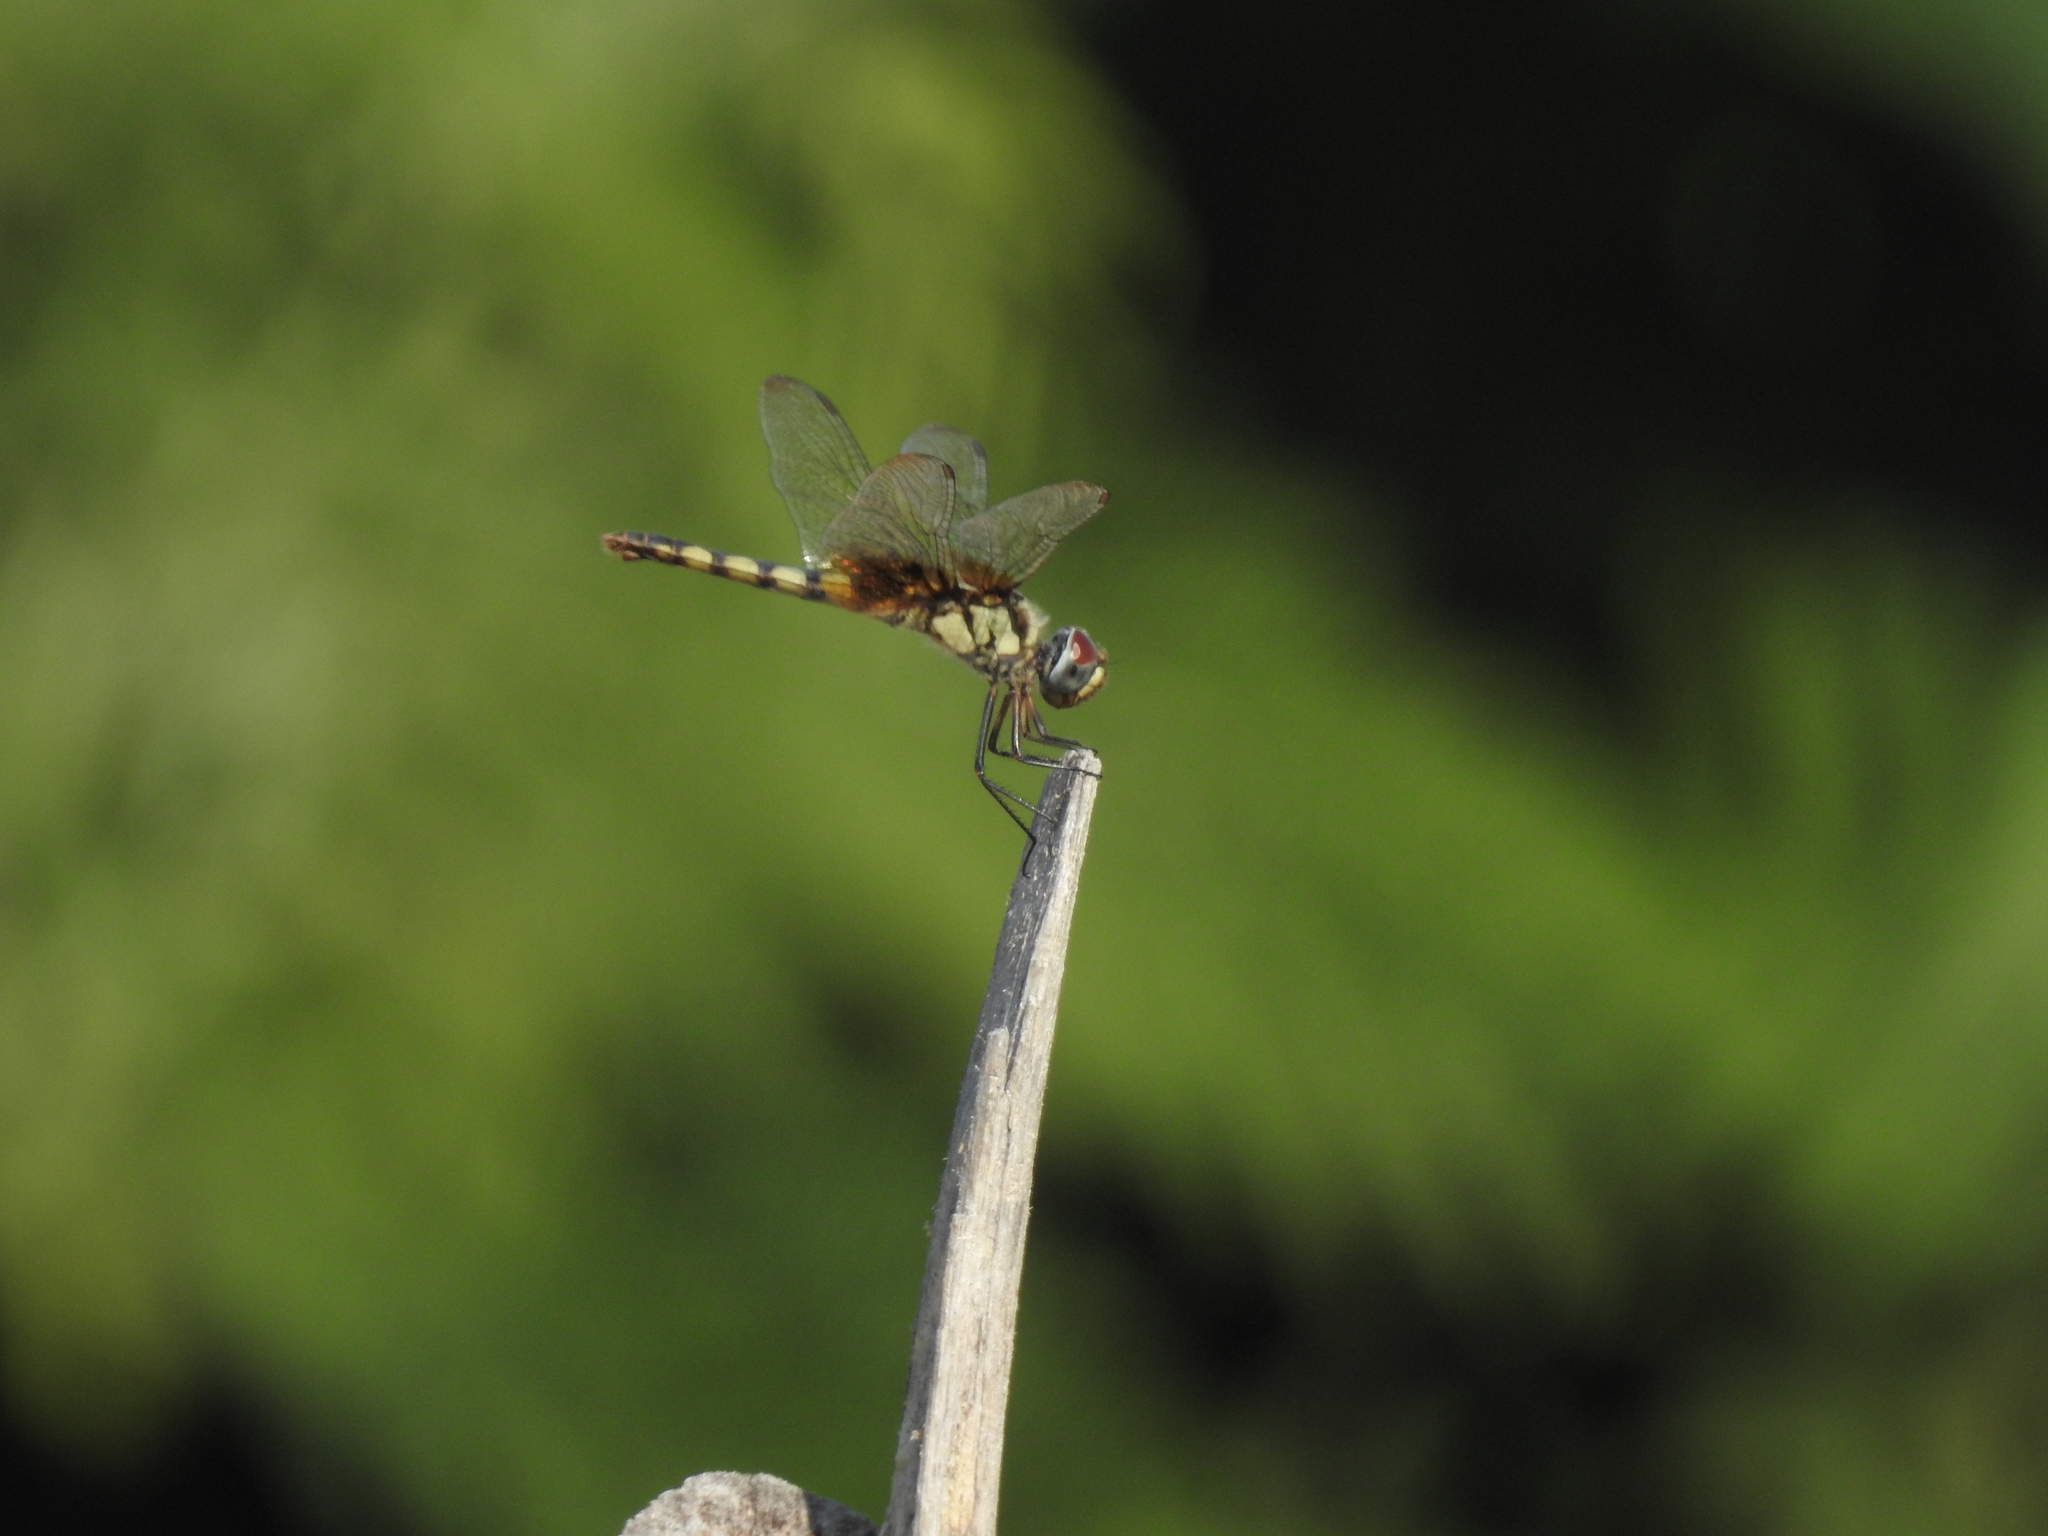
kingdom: Animalia
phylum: Arthropoda
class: Insecta
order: Odonata
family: Libellulidae
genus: Urothemis
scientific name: Urothemis signata
